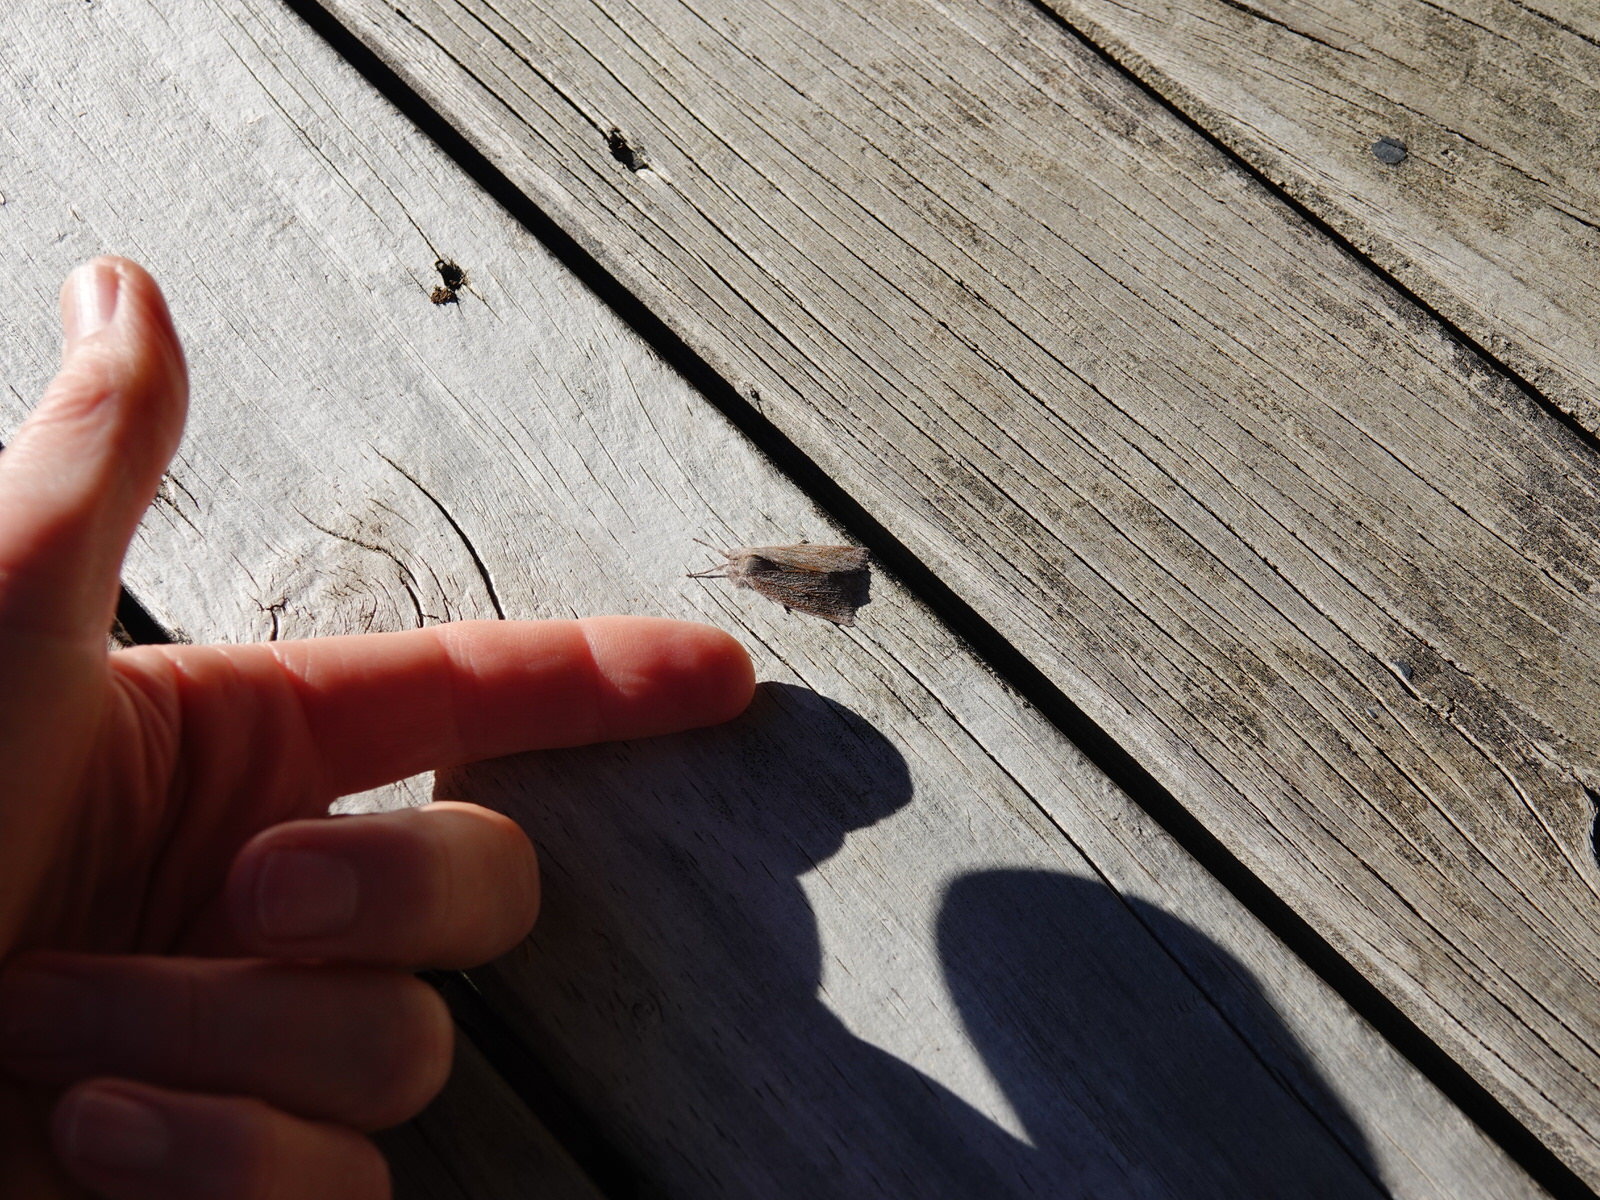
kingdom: Animalia
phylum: Arthropoda
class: Insecta
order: Lepidoptera
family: Geometridae
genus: Declana
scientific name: Declana leptomera
